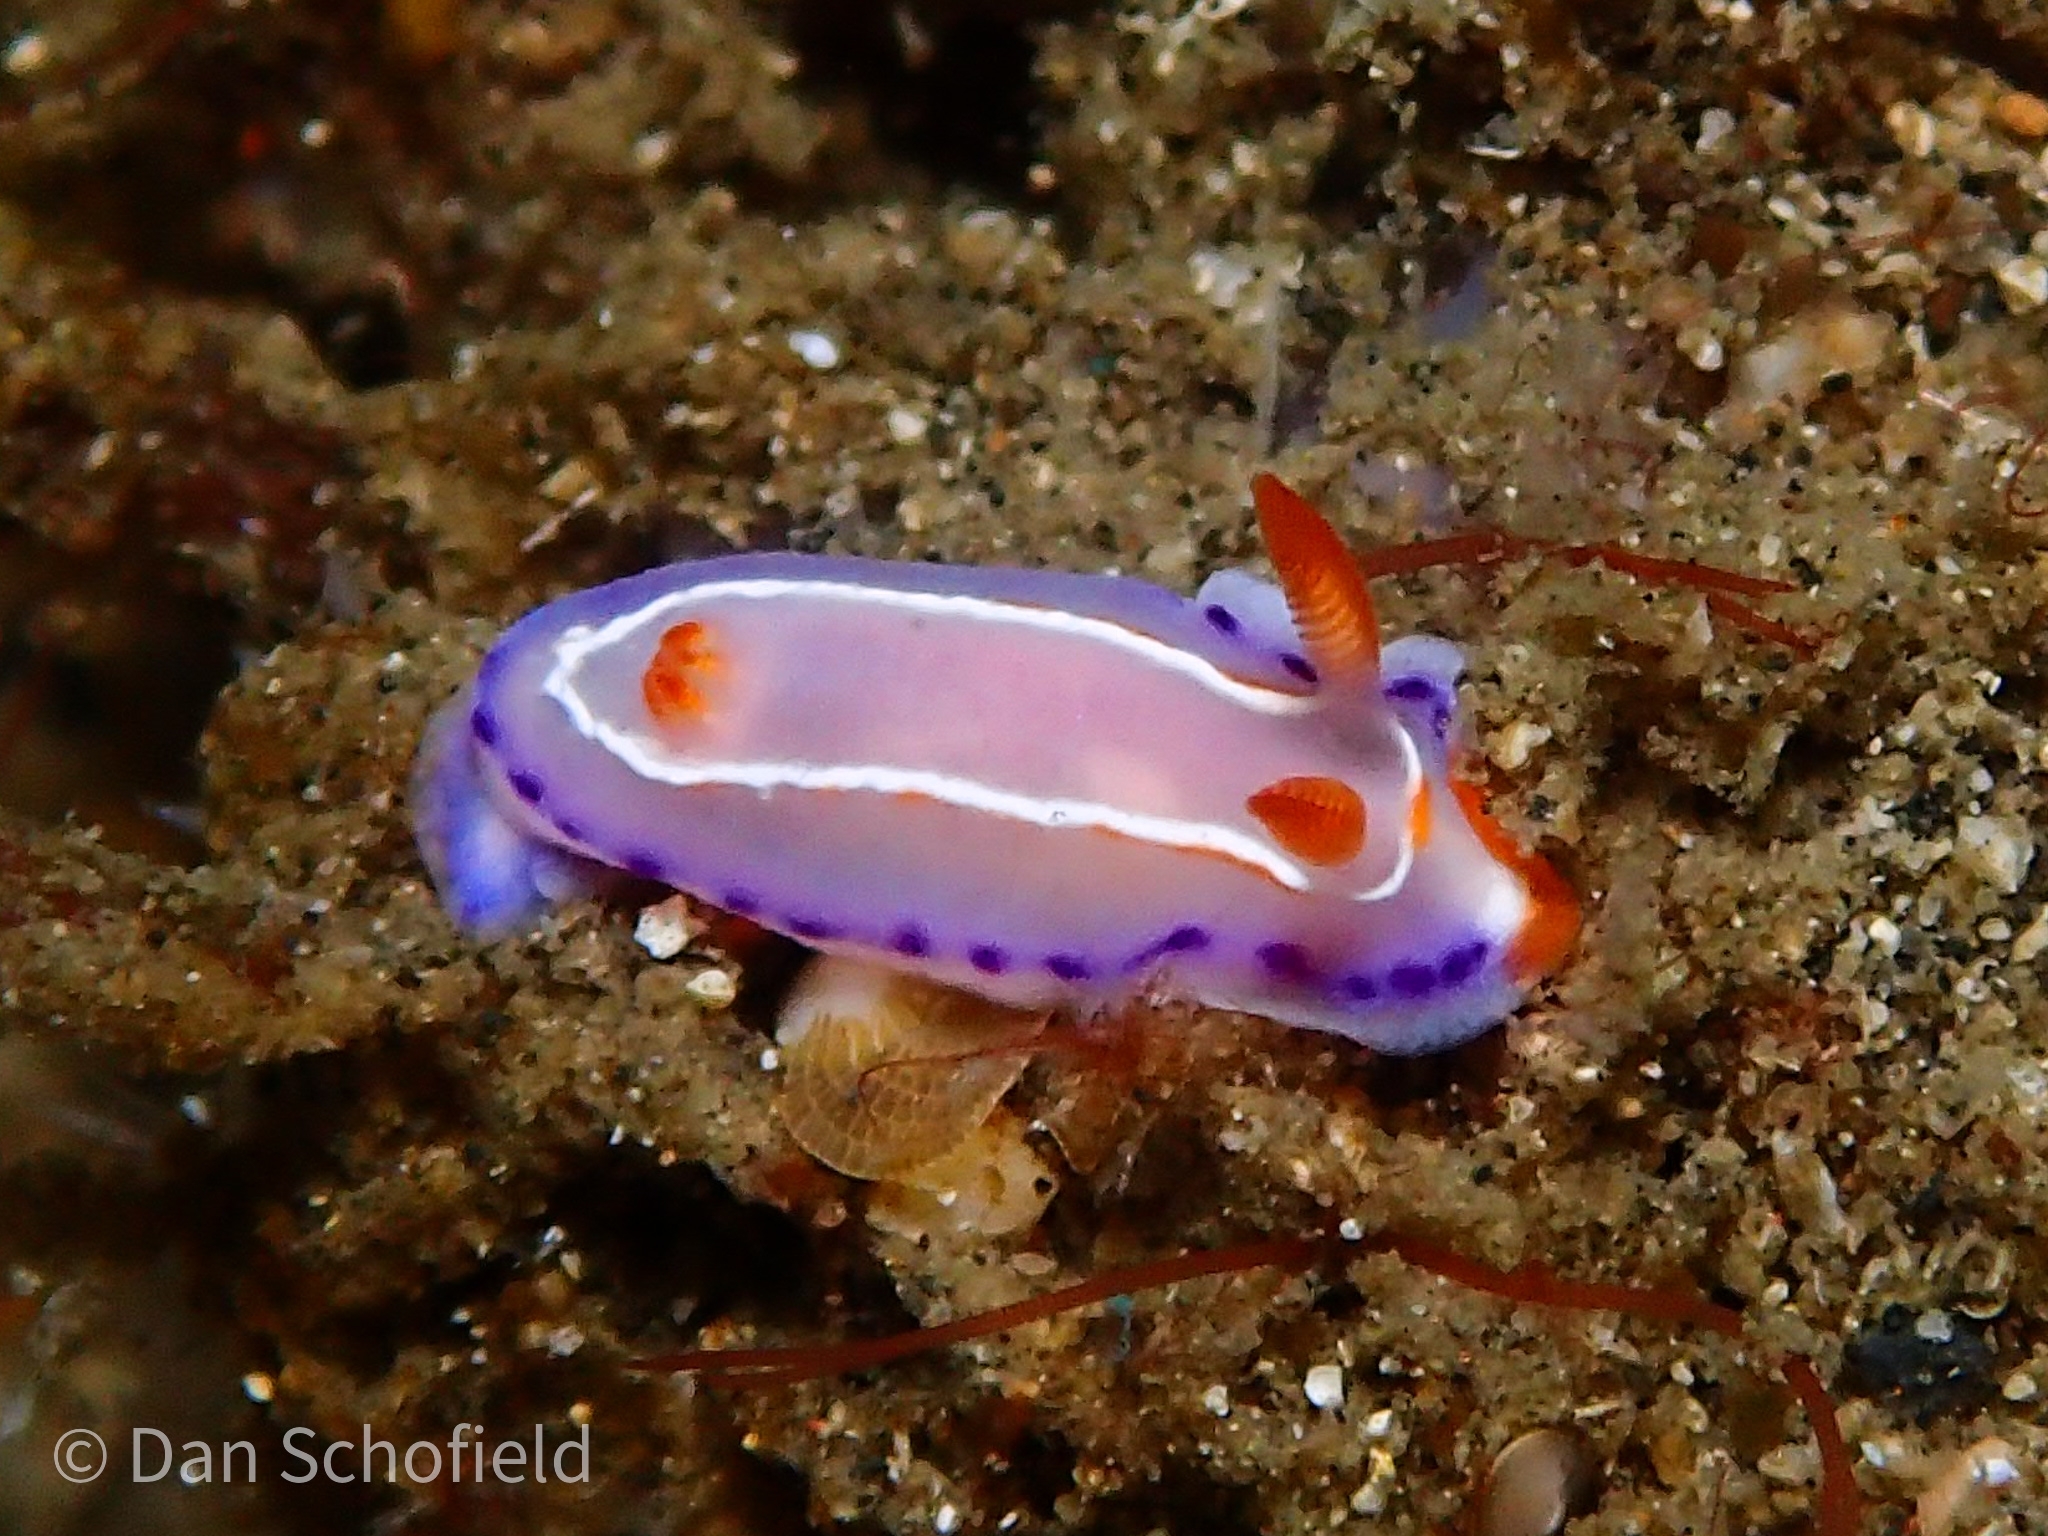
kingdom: Animalia
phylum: Mollusca
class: Gastropoda
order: Nudibranchia
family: Chromodorididae
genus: Thorunna
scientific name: Thorunna florens
